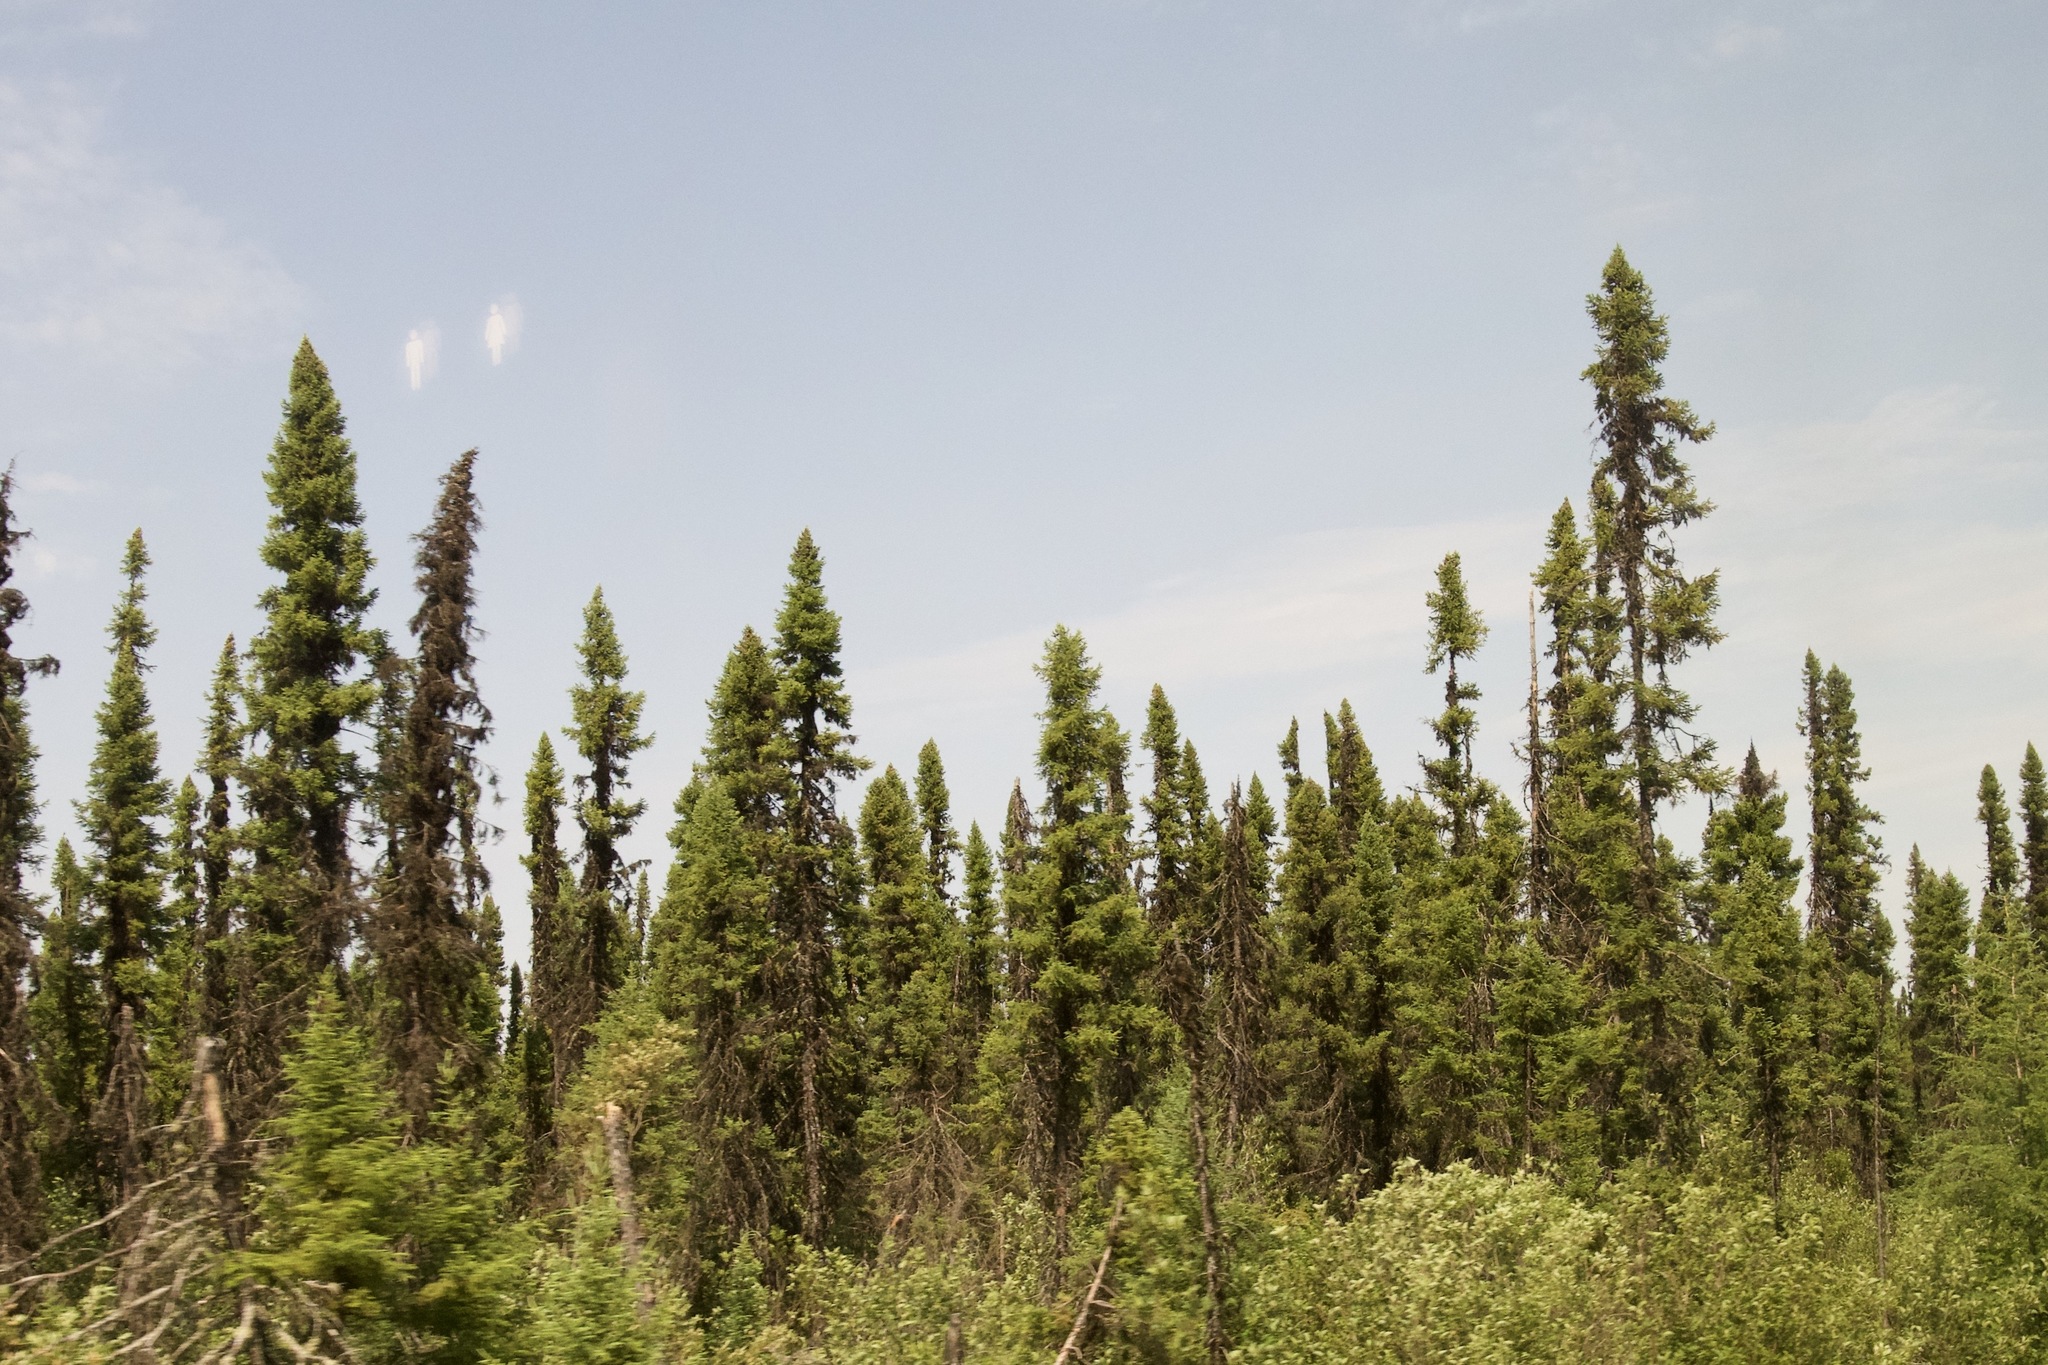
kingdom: Plantae
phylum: Tracheophyta
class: Pinopsida
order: Pinales
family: Pinaceae
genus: Picea
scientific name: Picea mariana
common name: Black spruce
